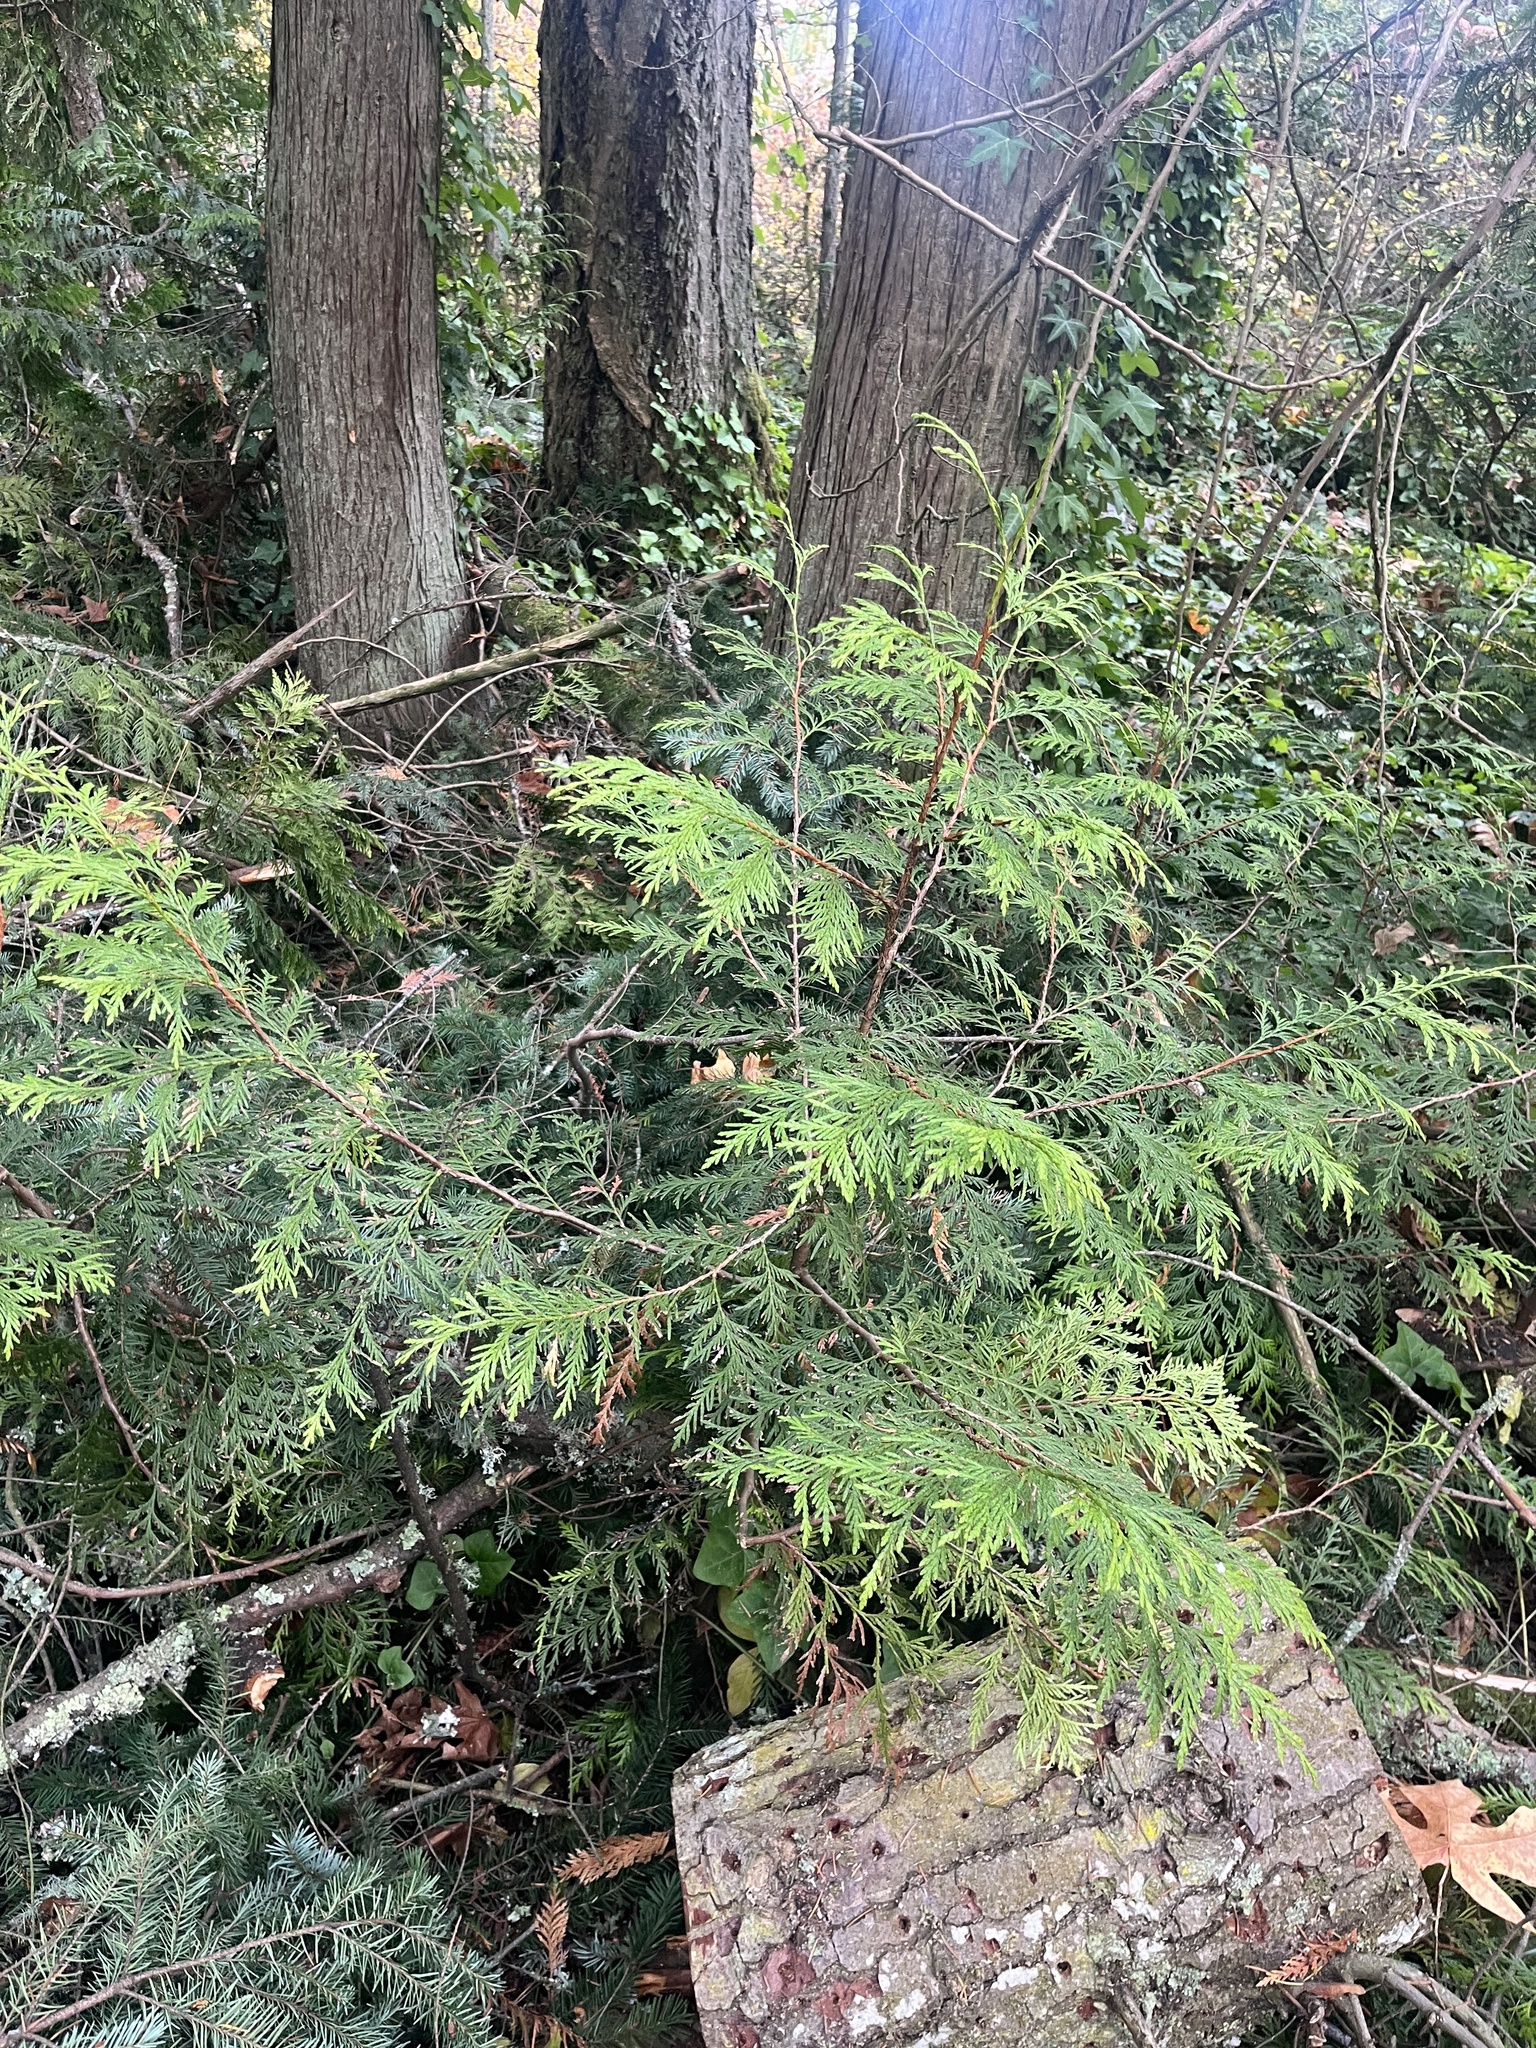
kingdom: Plantae
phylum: Tracheophyta
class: Pinopsida
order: Pinales
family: Cupressaceae
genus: Thuja
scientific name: Thuja plicata
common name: Western red-cedar
